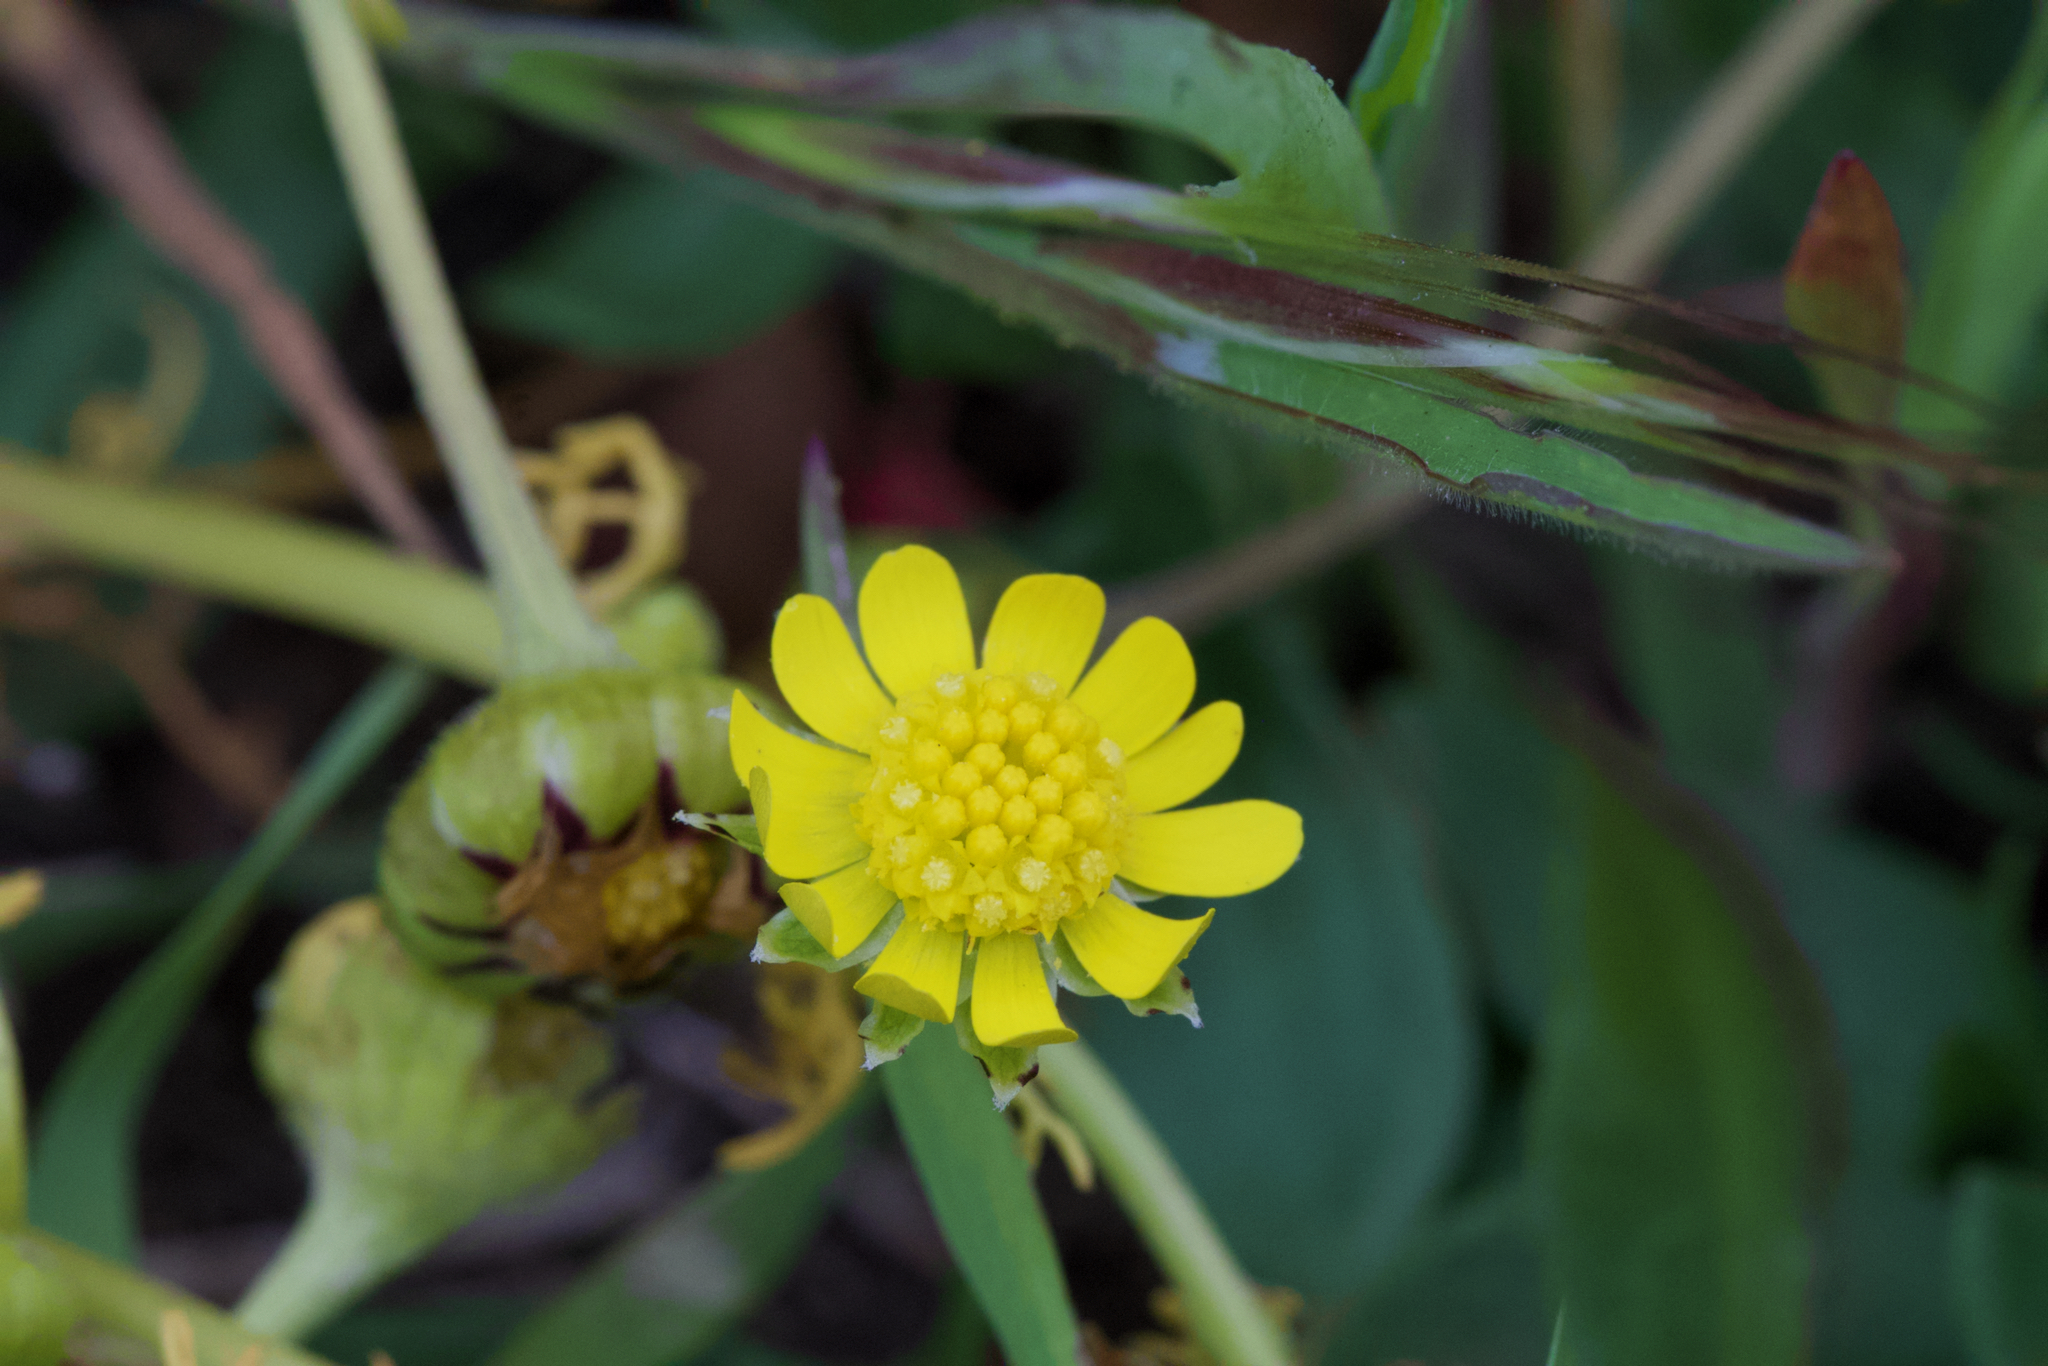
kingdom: Plantae
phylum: Tracheophyta
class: Magnoliopsida
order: Asterales
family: Asteraceae
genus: Blennosperma
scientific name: Blennosperma nanum
